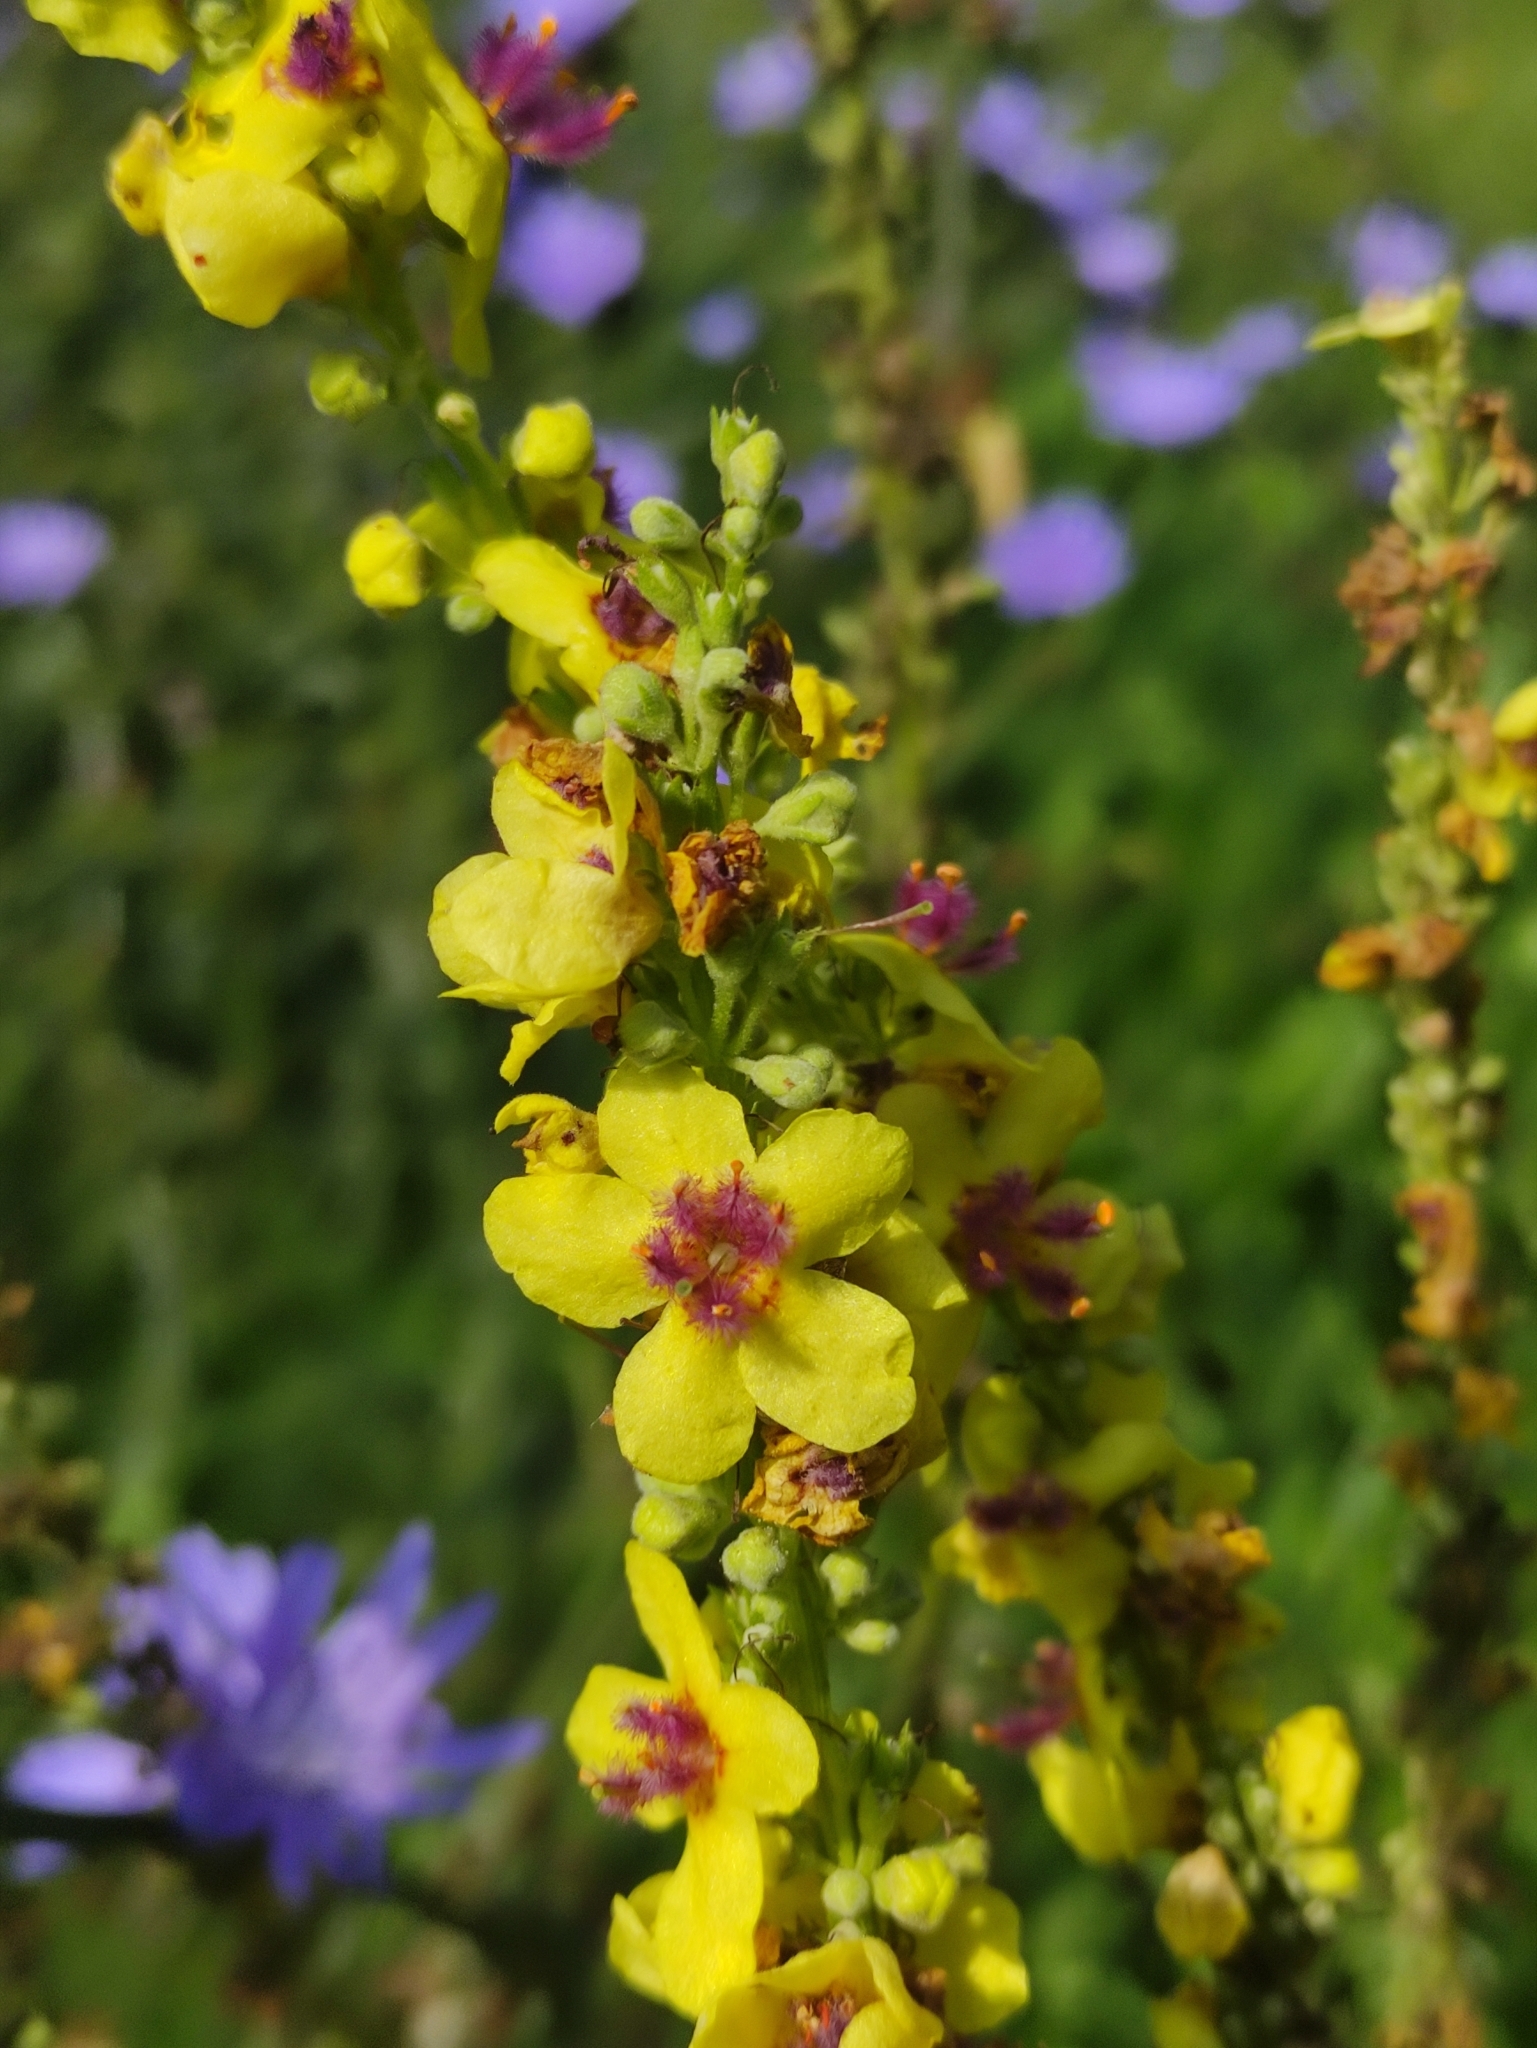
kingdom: Plantae
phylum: Tracheophyta
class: Magnoliopsida
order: Lamiales
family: Scrophulariaceae
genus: Verbascum
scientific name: Verbascum nigrum
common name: Dark mullein
